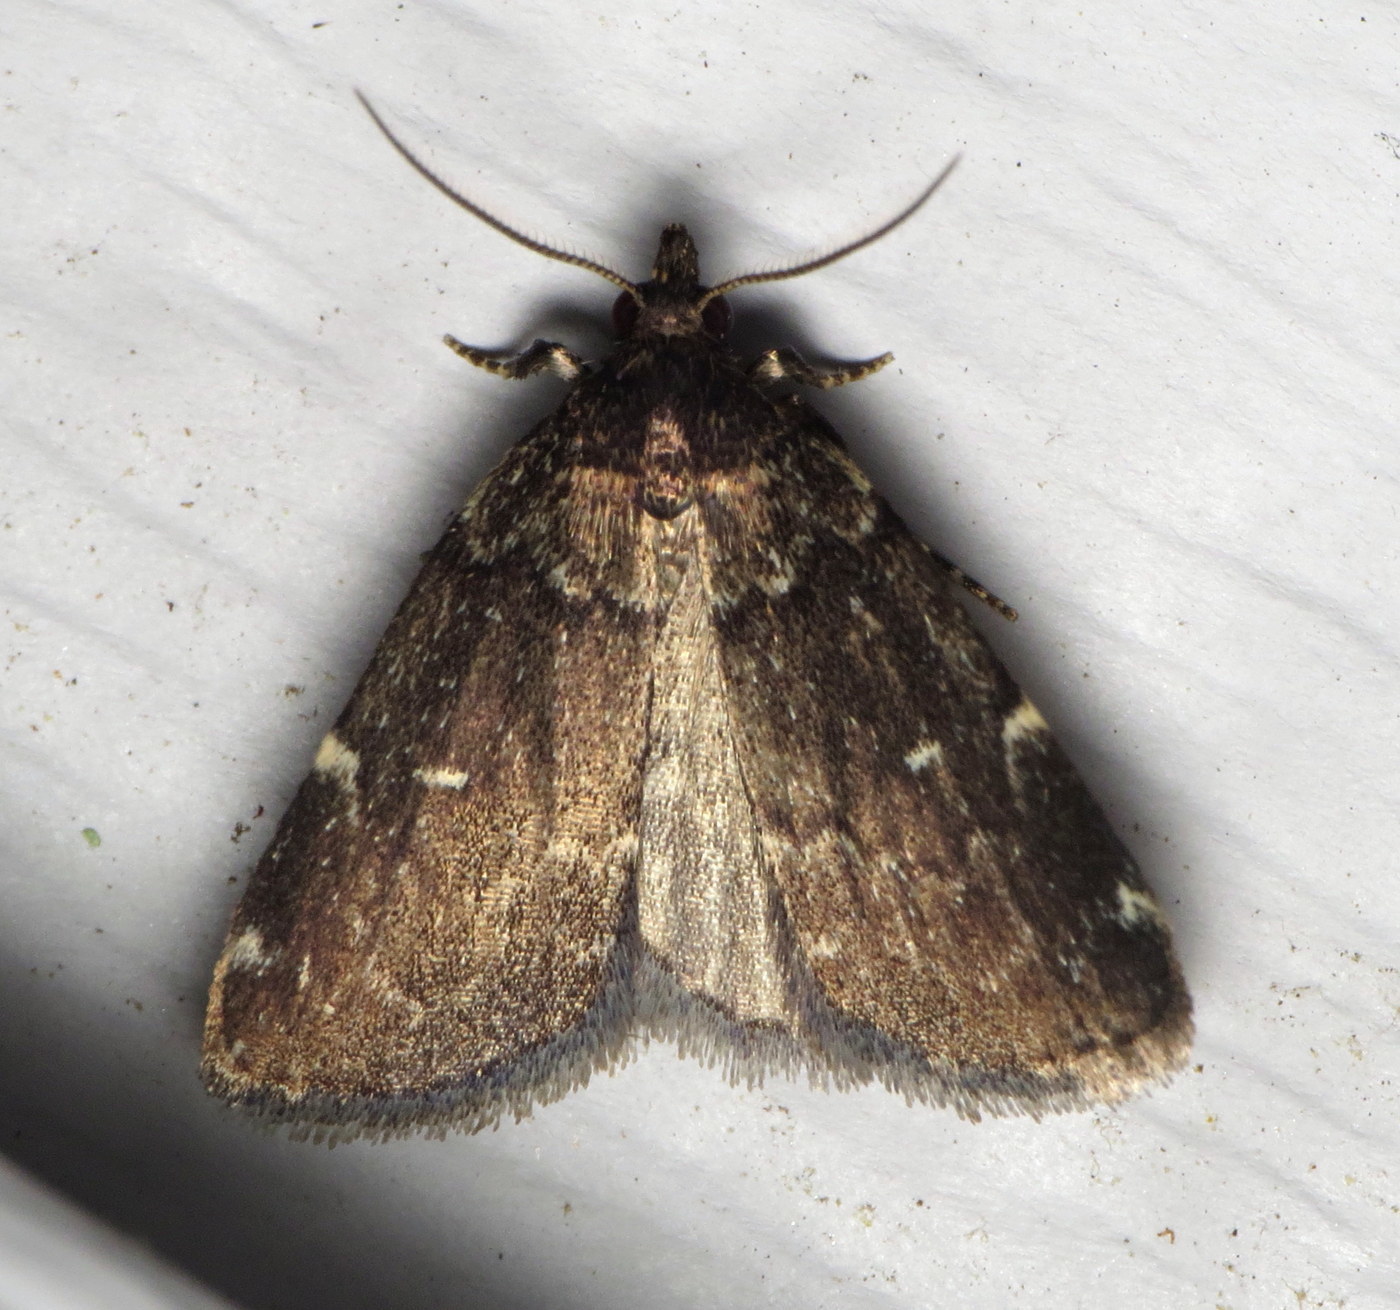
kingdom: Animalia
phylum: Arthropoda
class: Insecta
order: Lepidoptera
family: Erebidae
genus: Idia
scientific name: Idia julia
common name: Julia's idia moth
